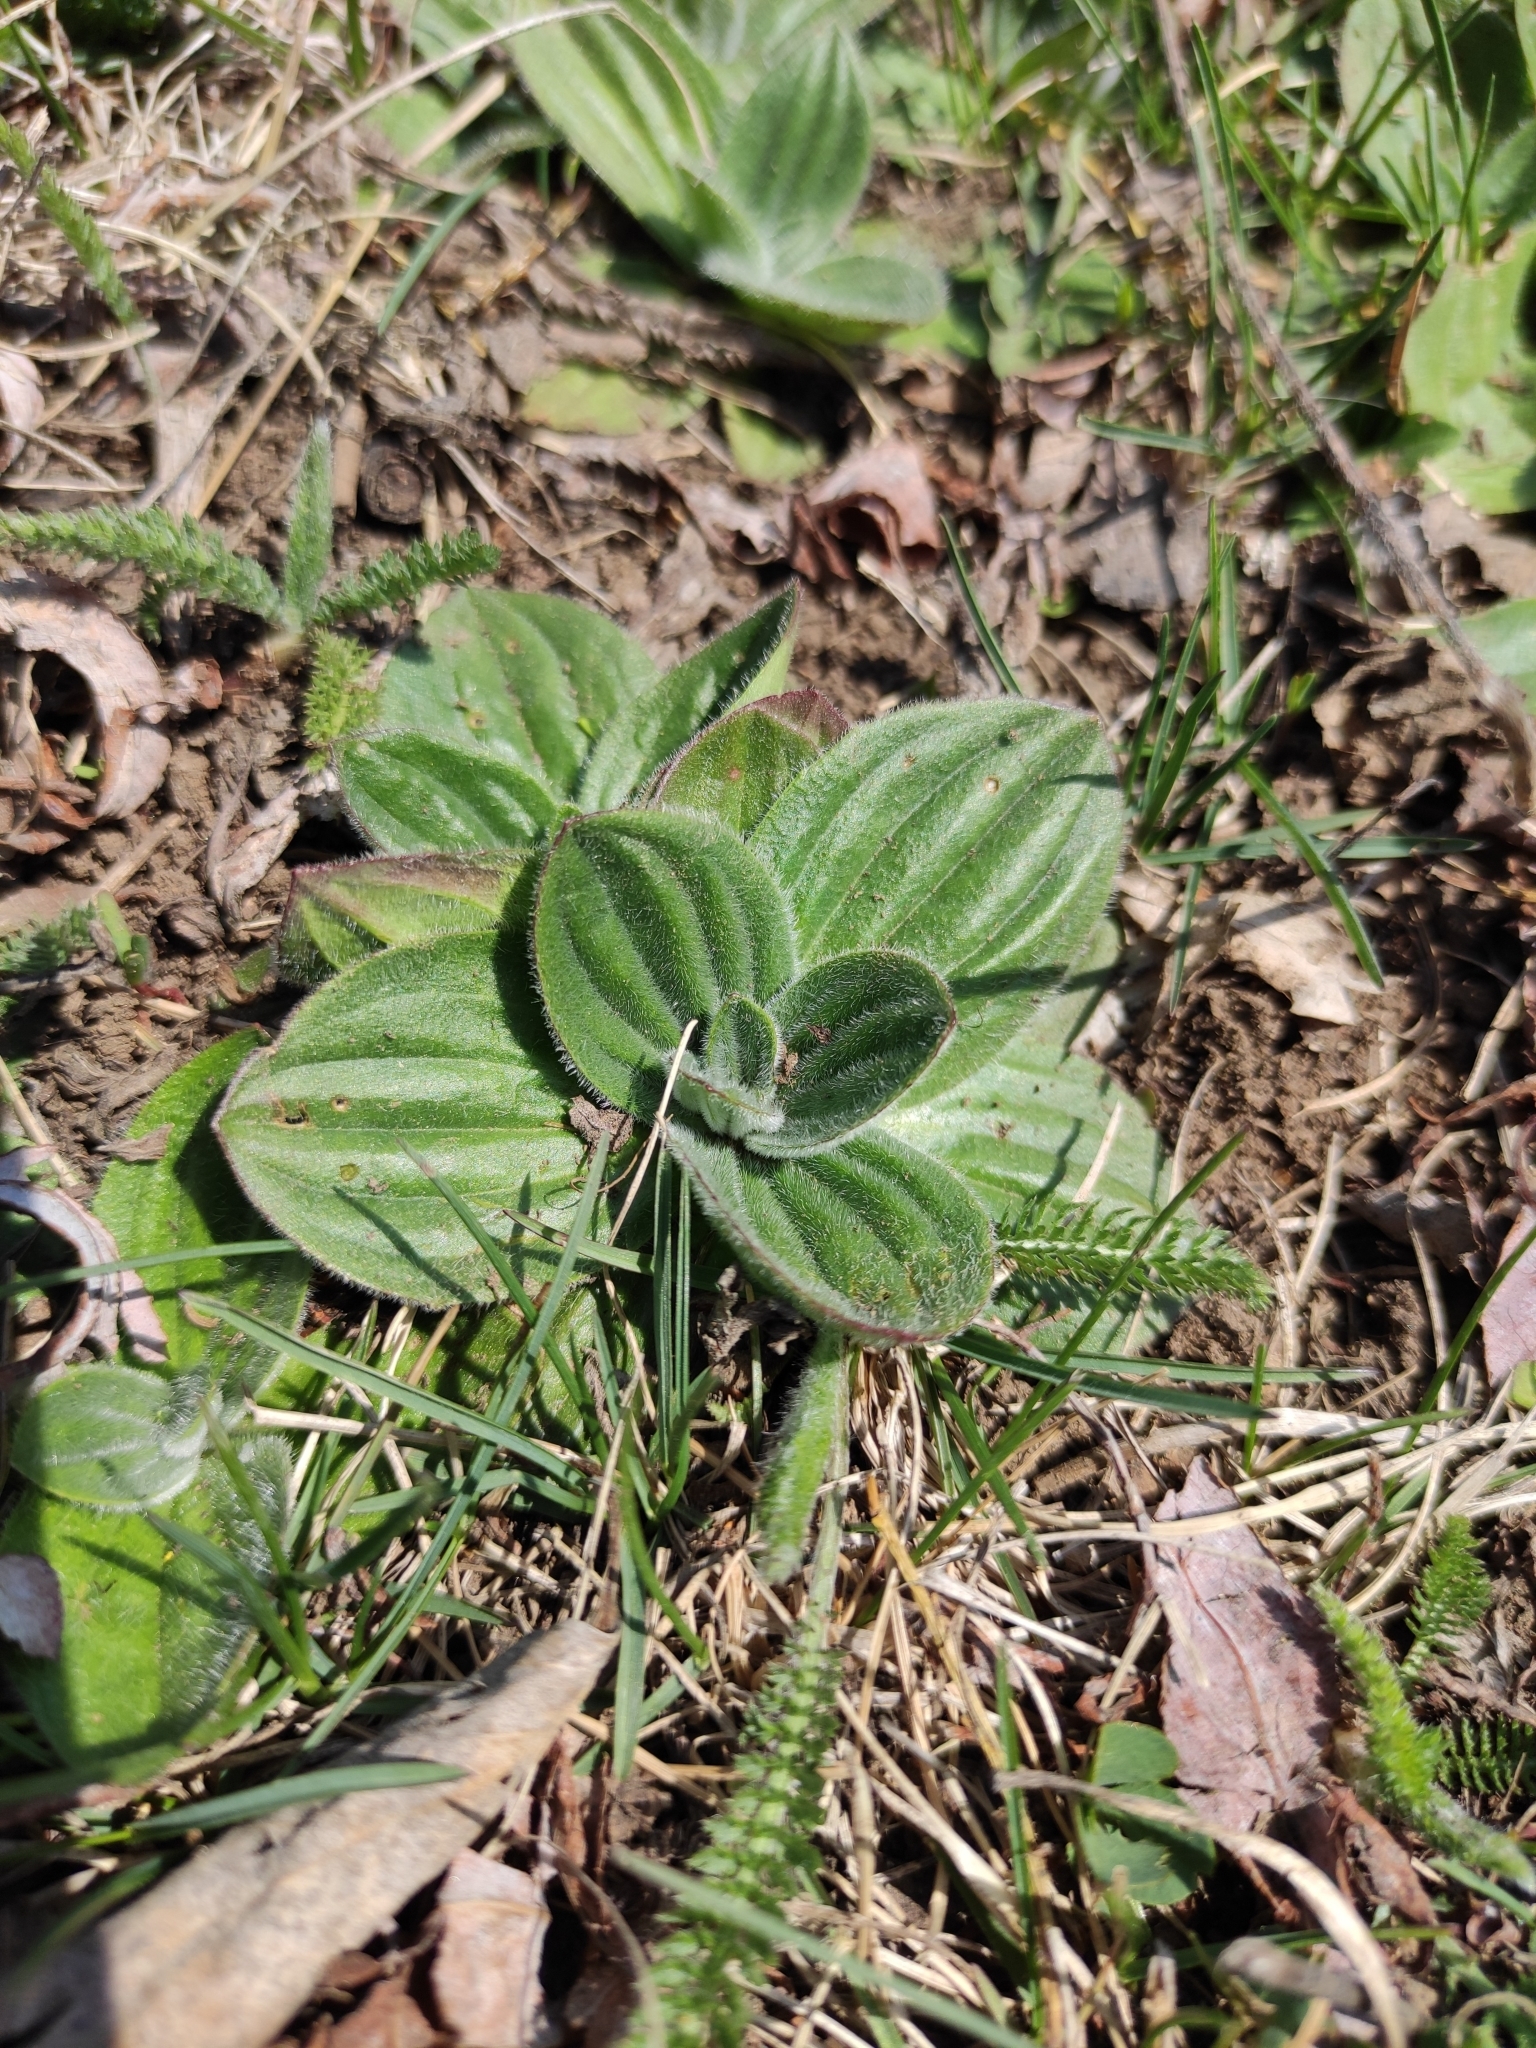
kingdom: Plantae
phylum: Tracheophyta
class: Magnoliopsida
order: Lamiales
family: Plantaginaceae
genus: Plantago
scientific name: Plantago media
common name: Hoary plantain
